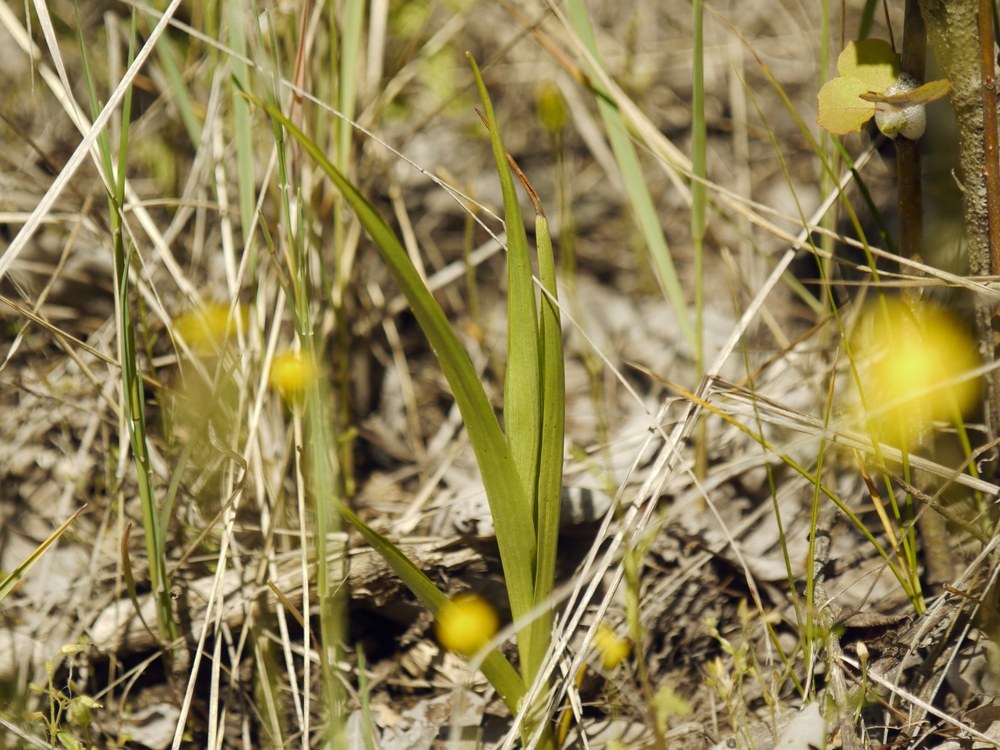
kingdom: Plantae
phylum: Tracheophyta
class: Liliopsida
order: Asparagales
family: Orchidaceae
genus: Anacamptis
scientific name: Anacamptis palustris
